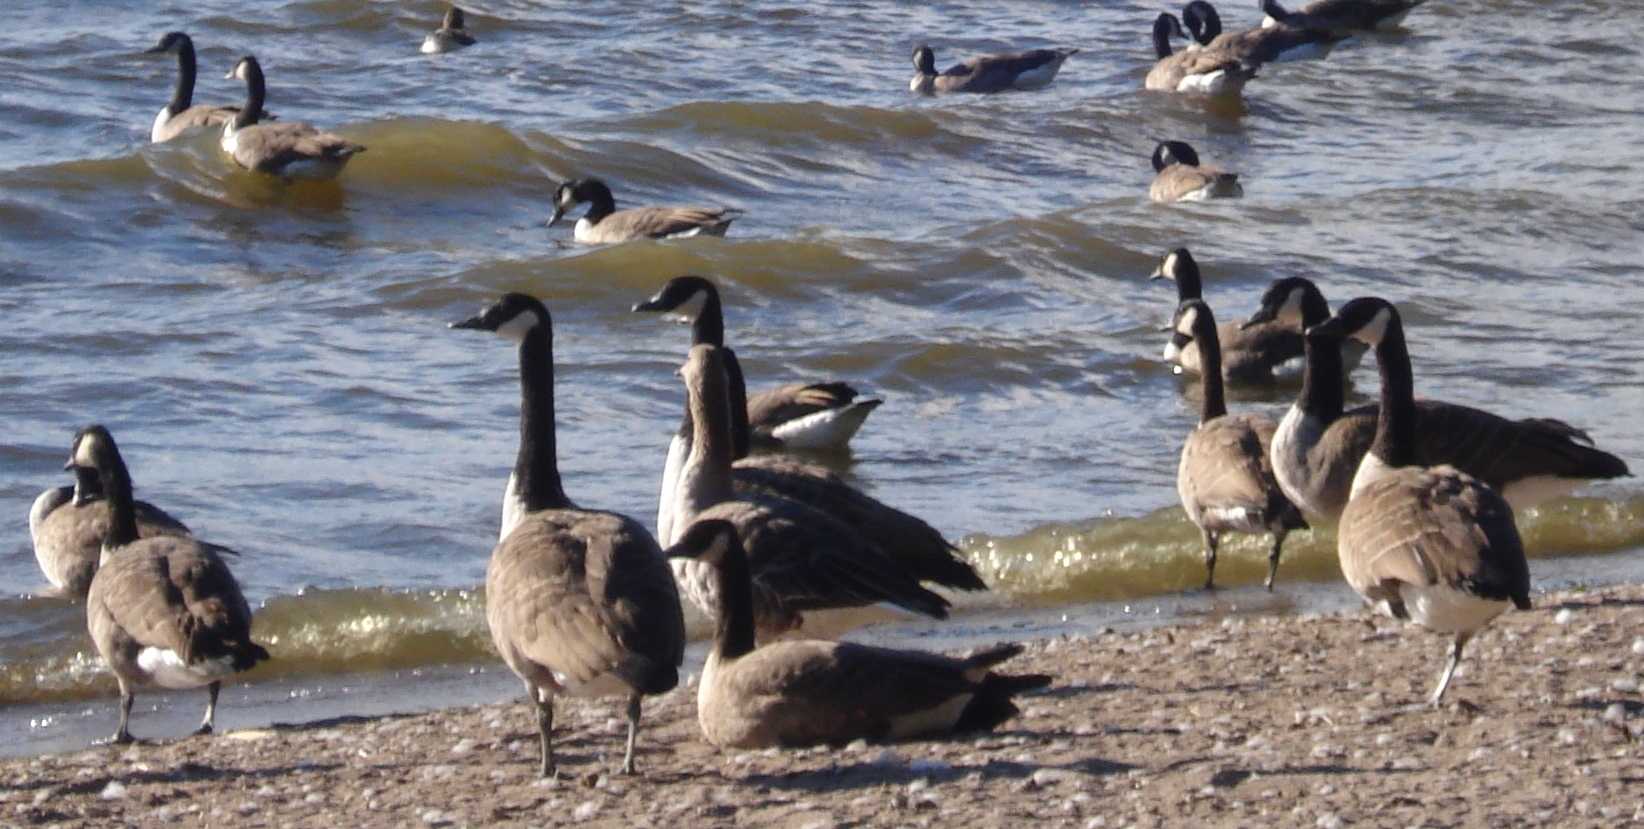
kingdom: Animalia
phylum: Chordata
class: Aves
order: Anseriformes
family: Anatidae
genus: Branta
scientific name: Branta canadensis
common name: Canada goose
